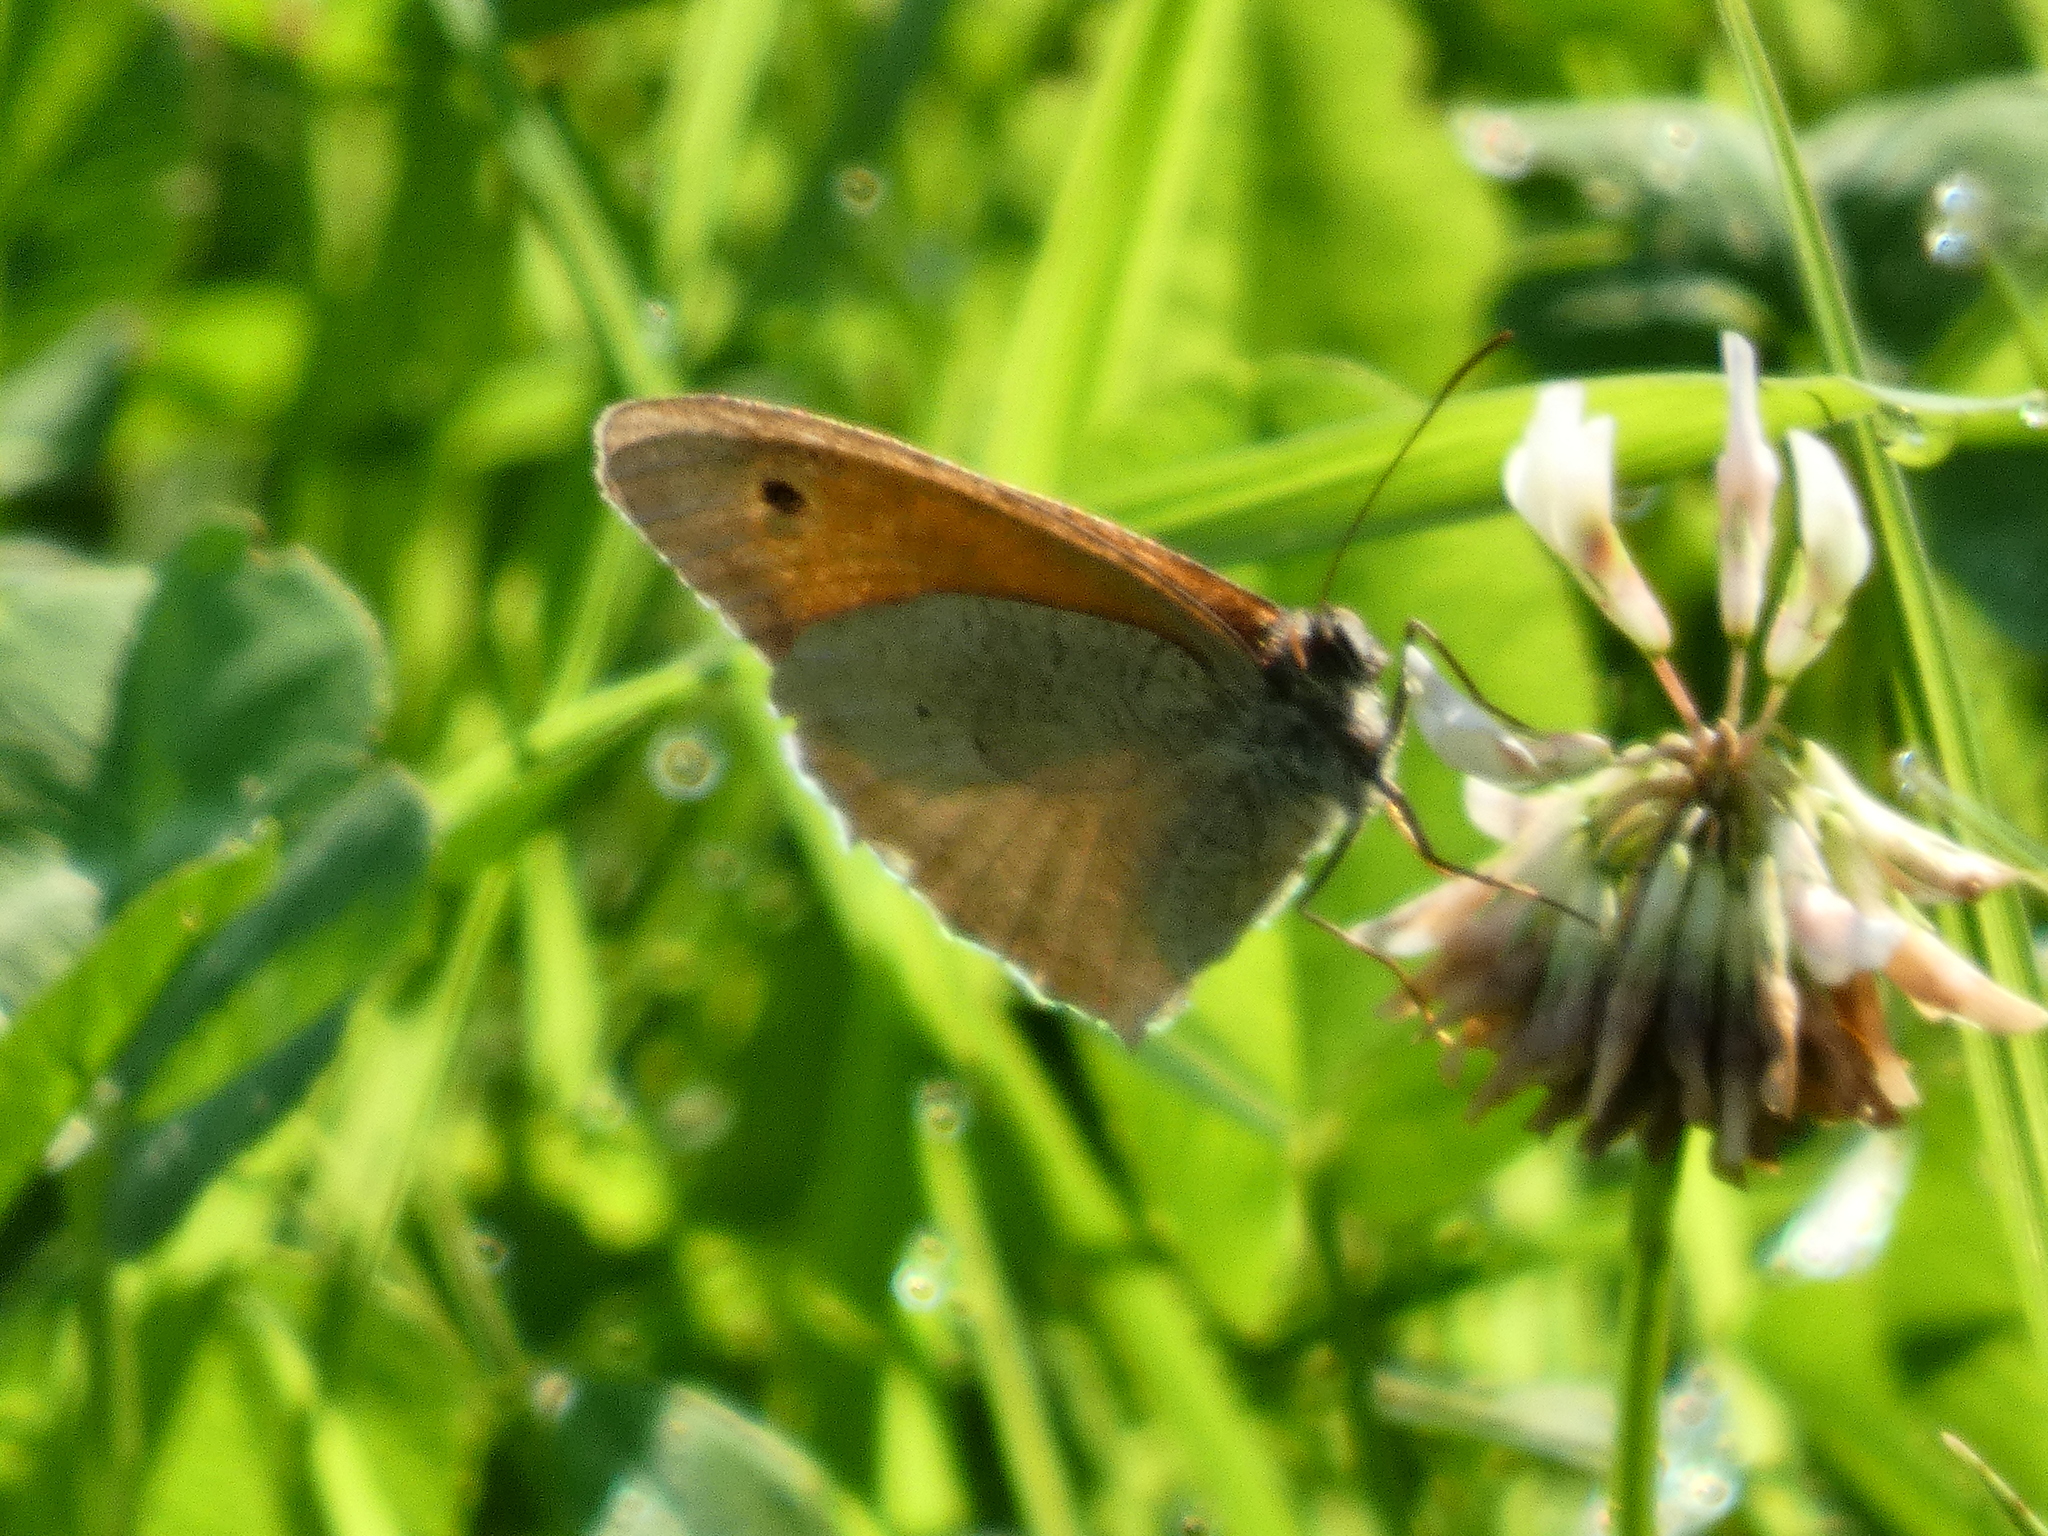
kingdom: Animalia
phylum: Arthropoda
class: Insecta
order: Lepidoptera
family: Nymphalidae
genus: Maniola
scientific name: Maniola jurtina
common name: Meadow brown
